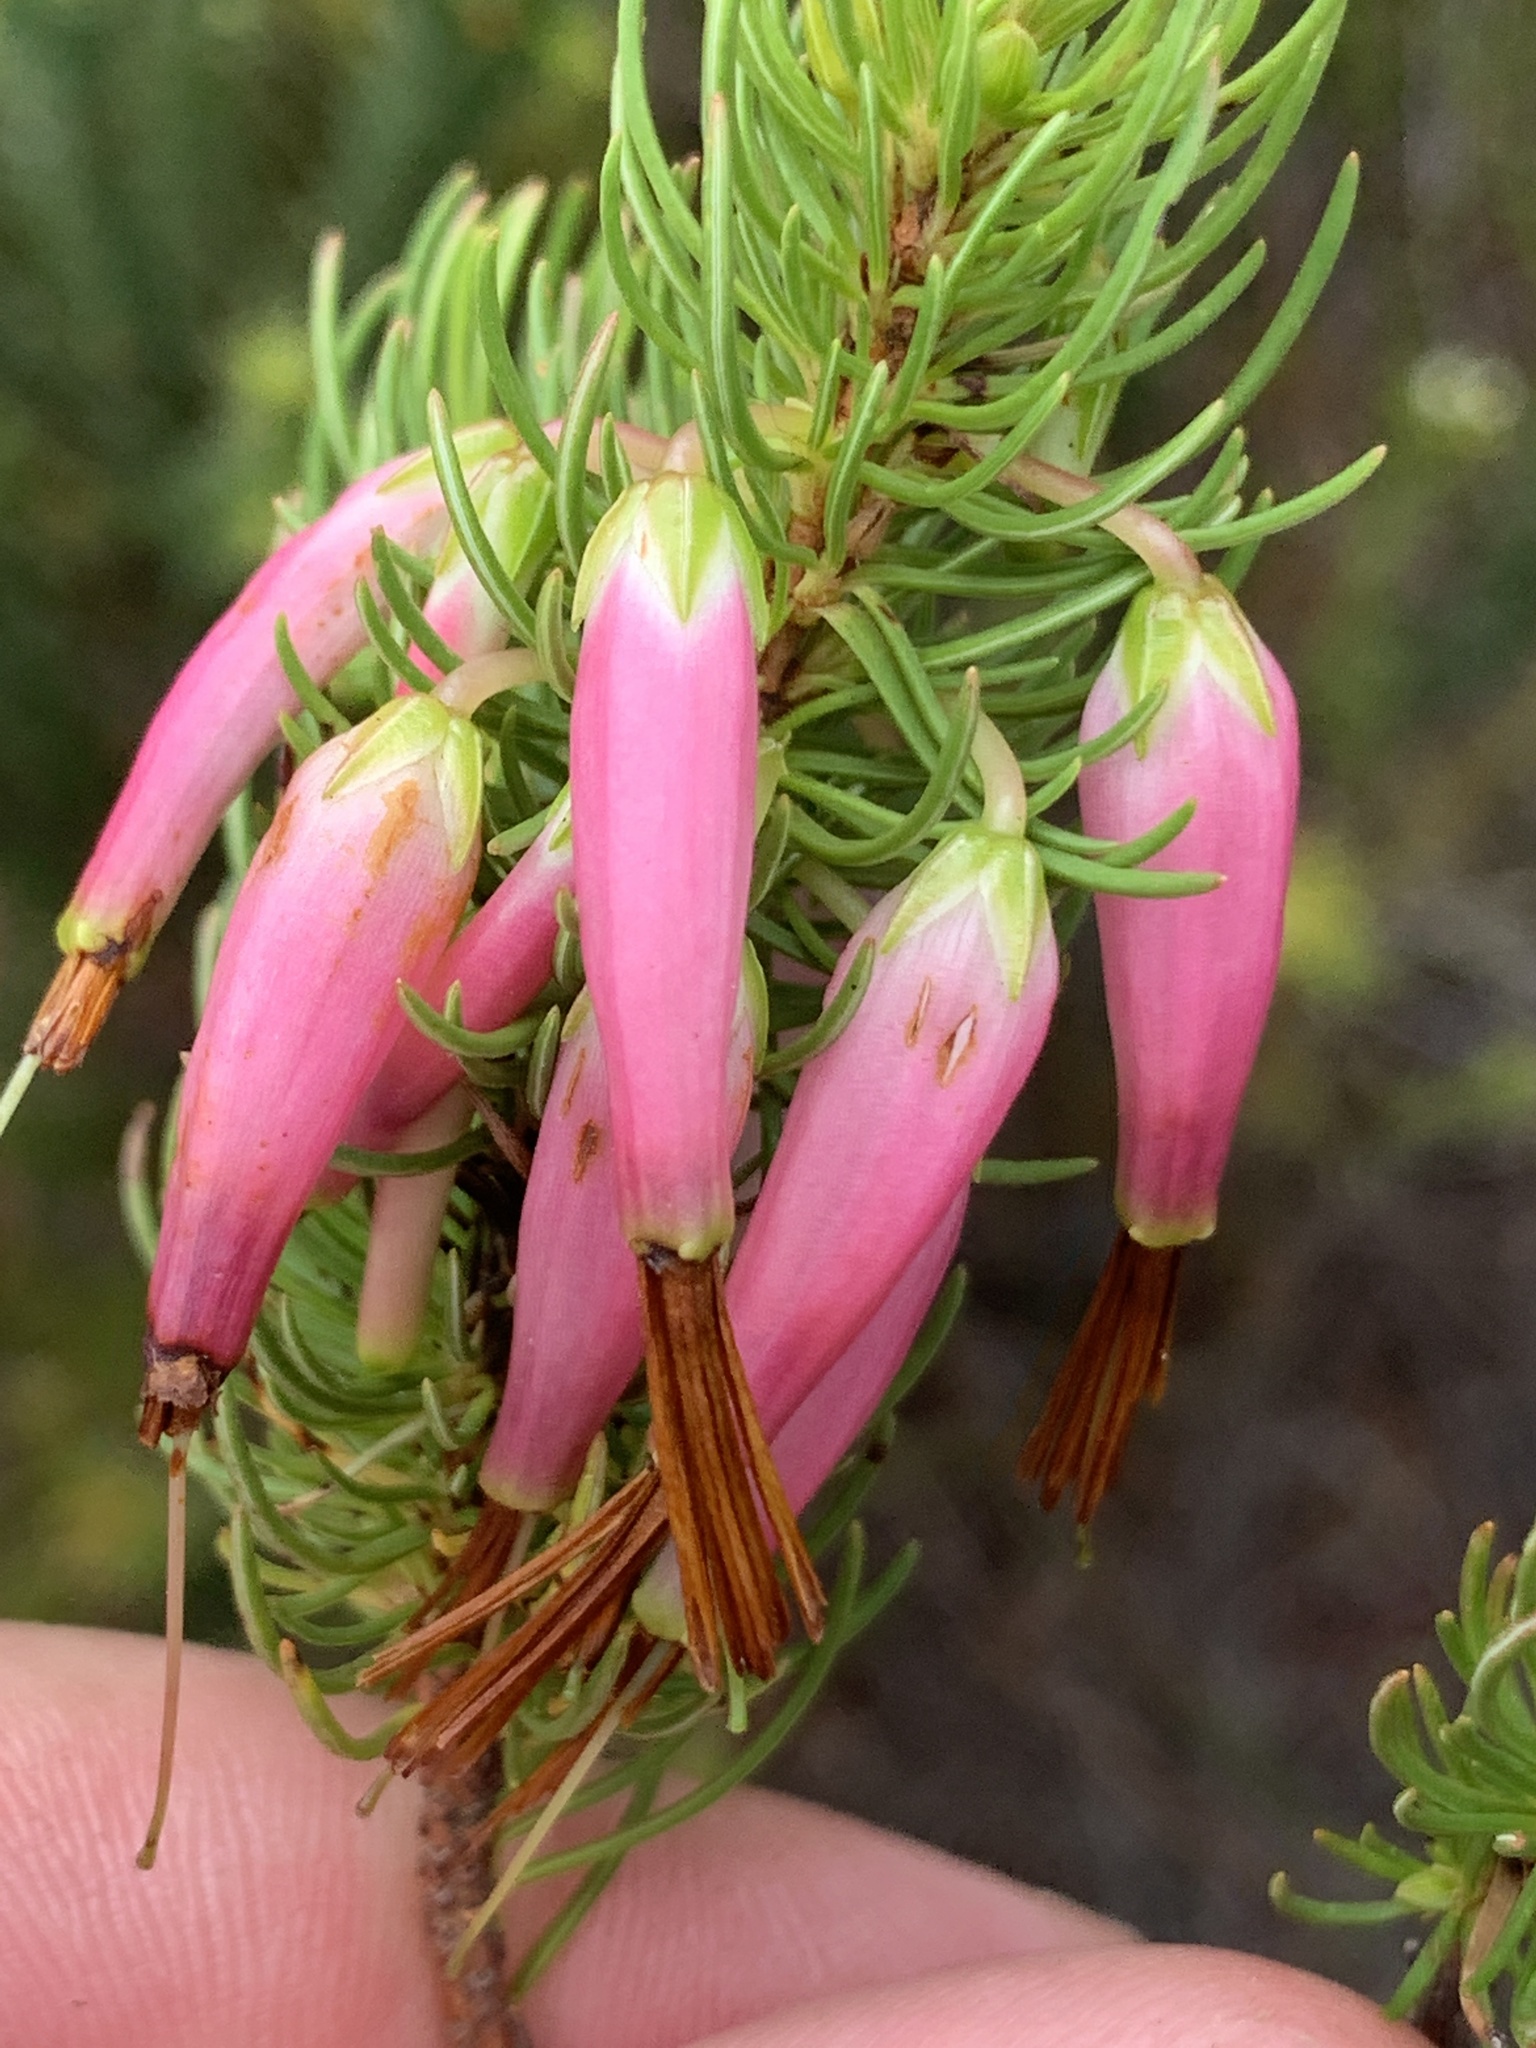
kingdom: Plantae
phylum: Tracheophyta
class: Magnoliopsida
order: Ericales
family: Ericaceae
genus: Erica
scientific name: Erica plukenetii
